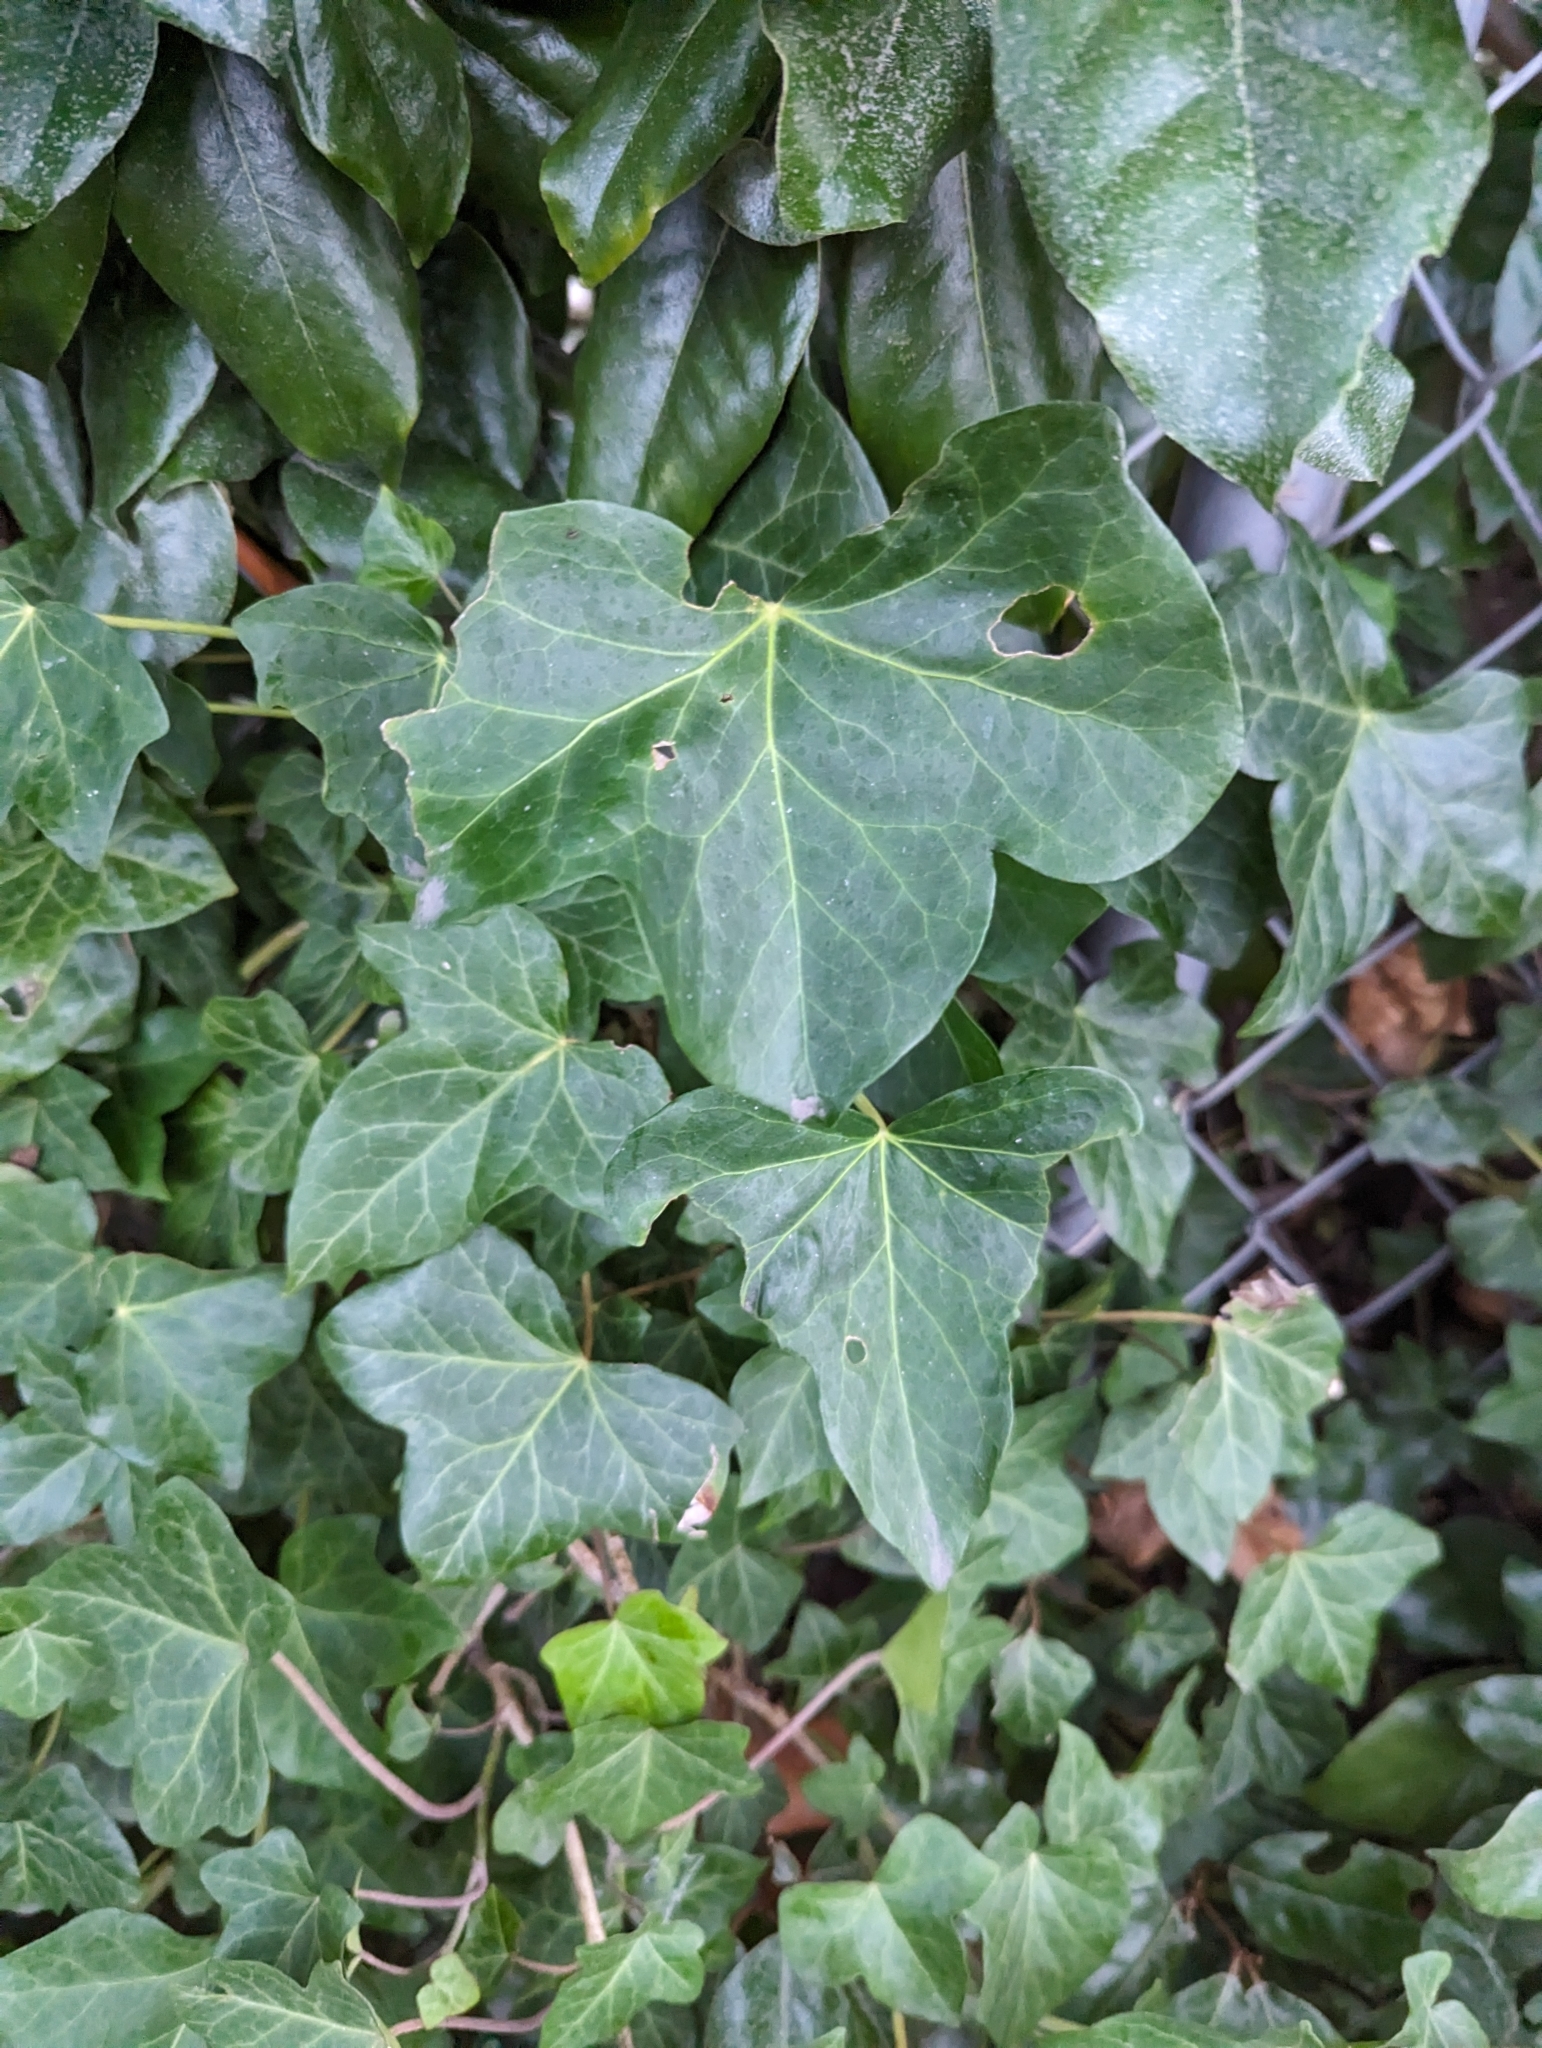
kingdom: Plantae
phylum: Tracheophyta
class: Magnoliopsida
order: Apiales
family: Araliaceae
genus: Hedera
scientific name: Hedera helix
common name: Ivy
